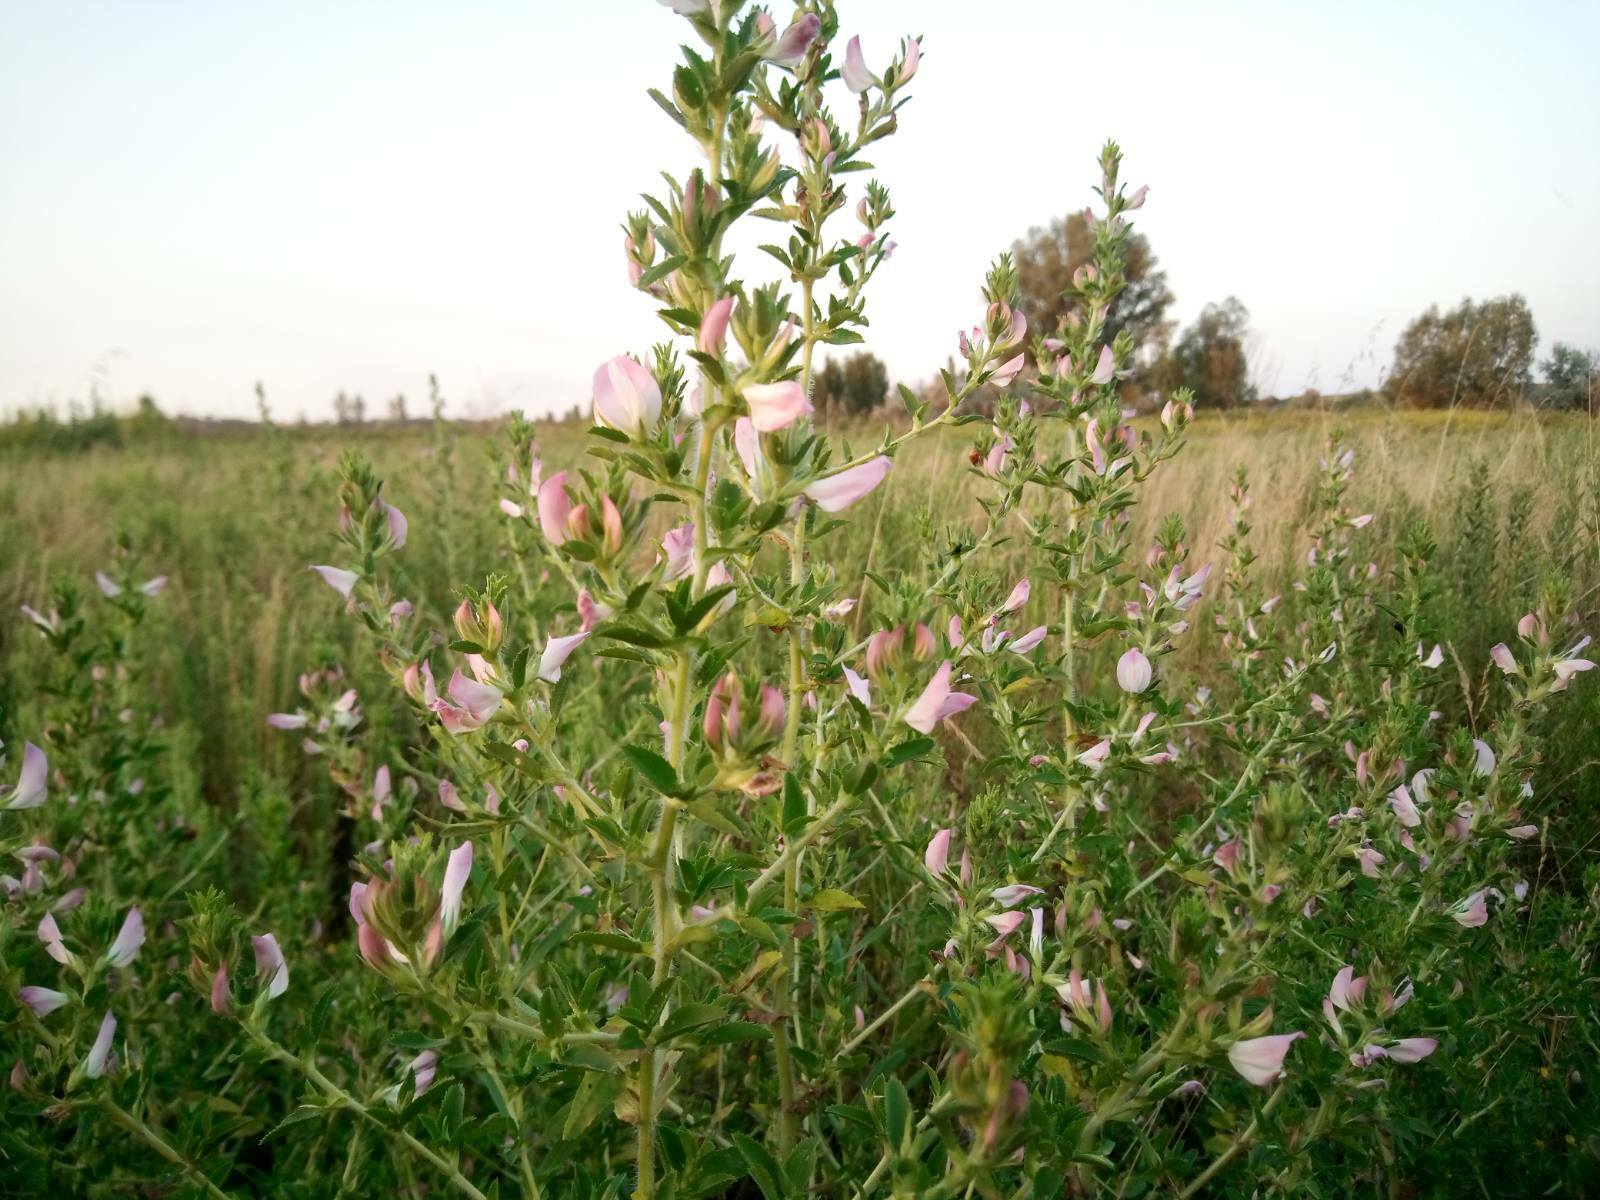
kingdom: Plantae
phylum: Tracheophyta
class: Magnoliopsida
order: Fabales
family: Fabaceae
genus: Ononis
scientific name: Ononis arvensis
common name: Field restharrow
